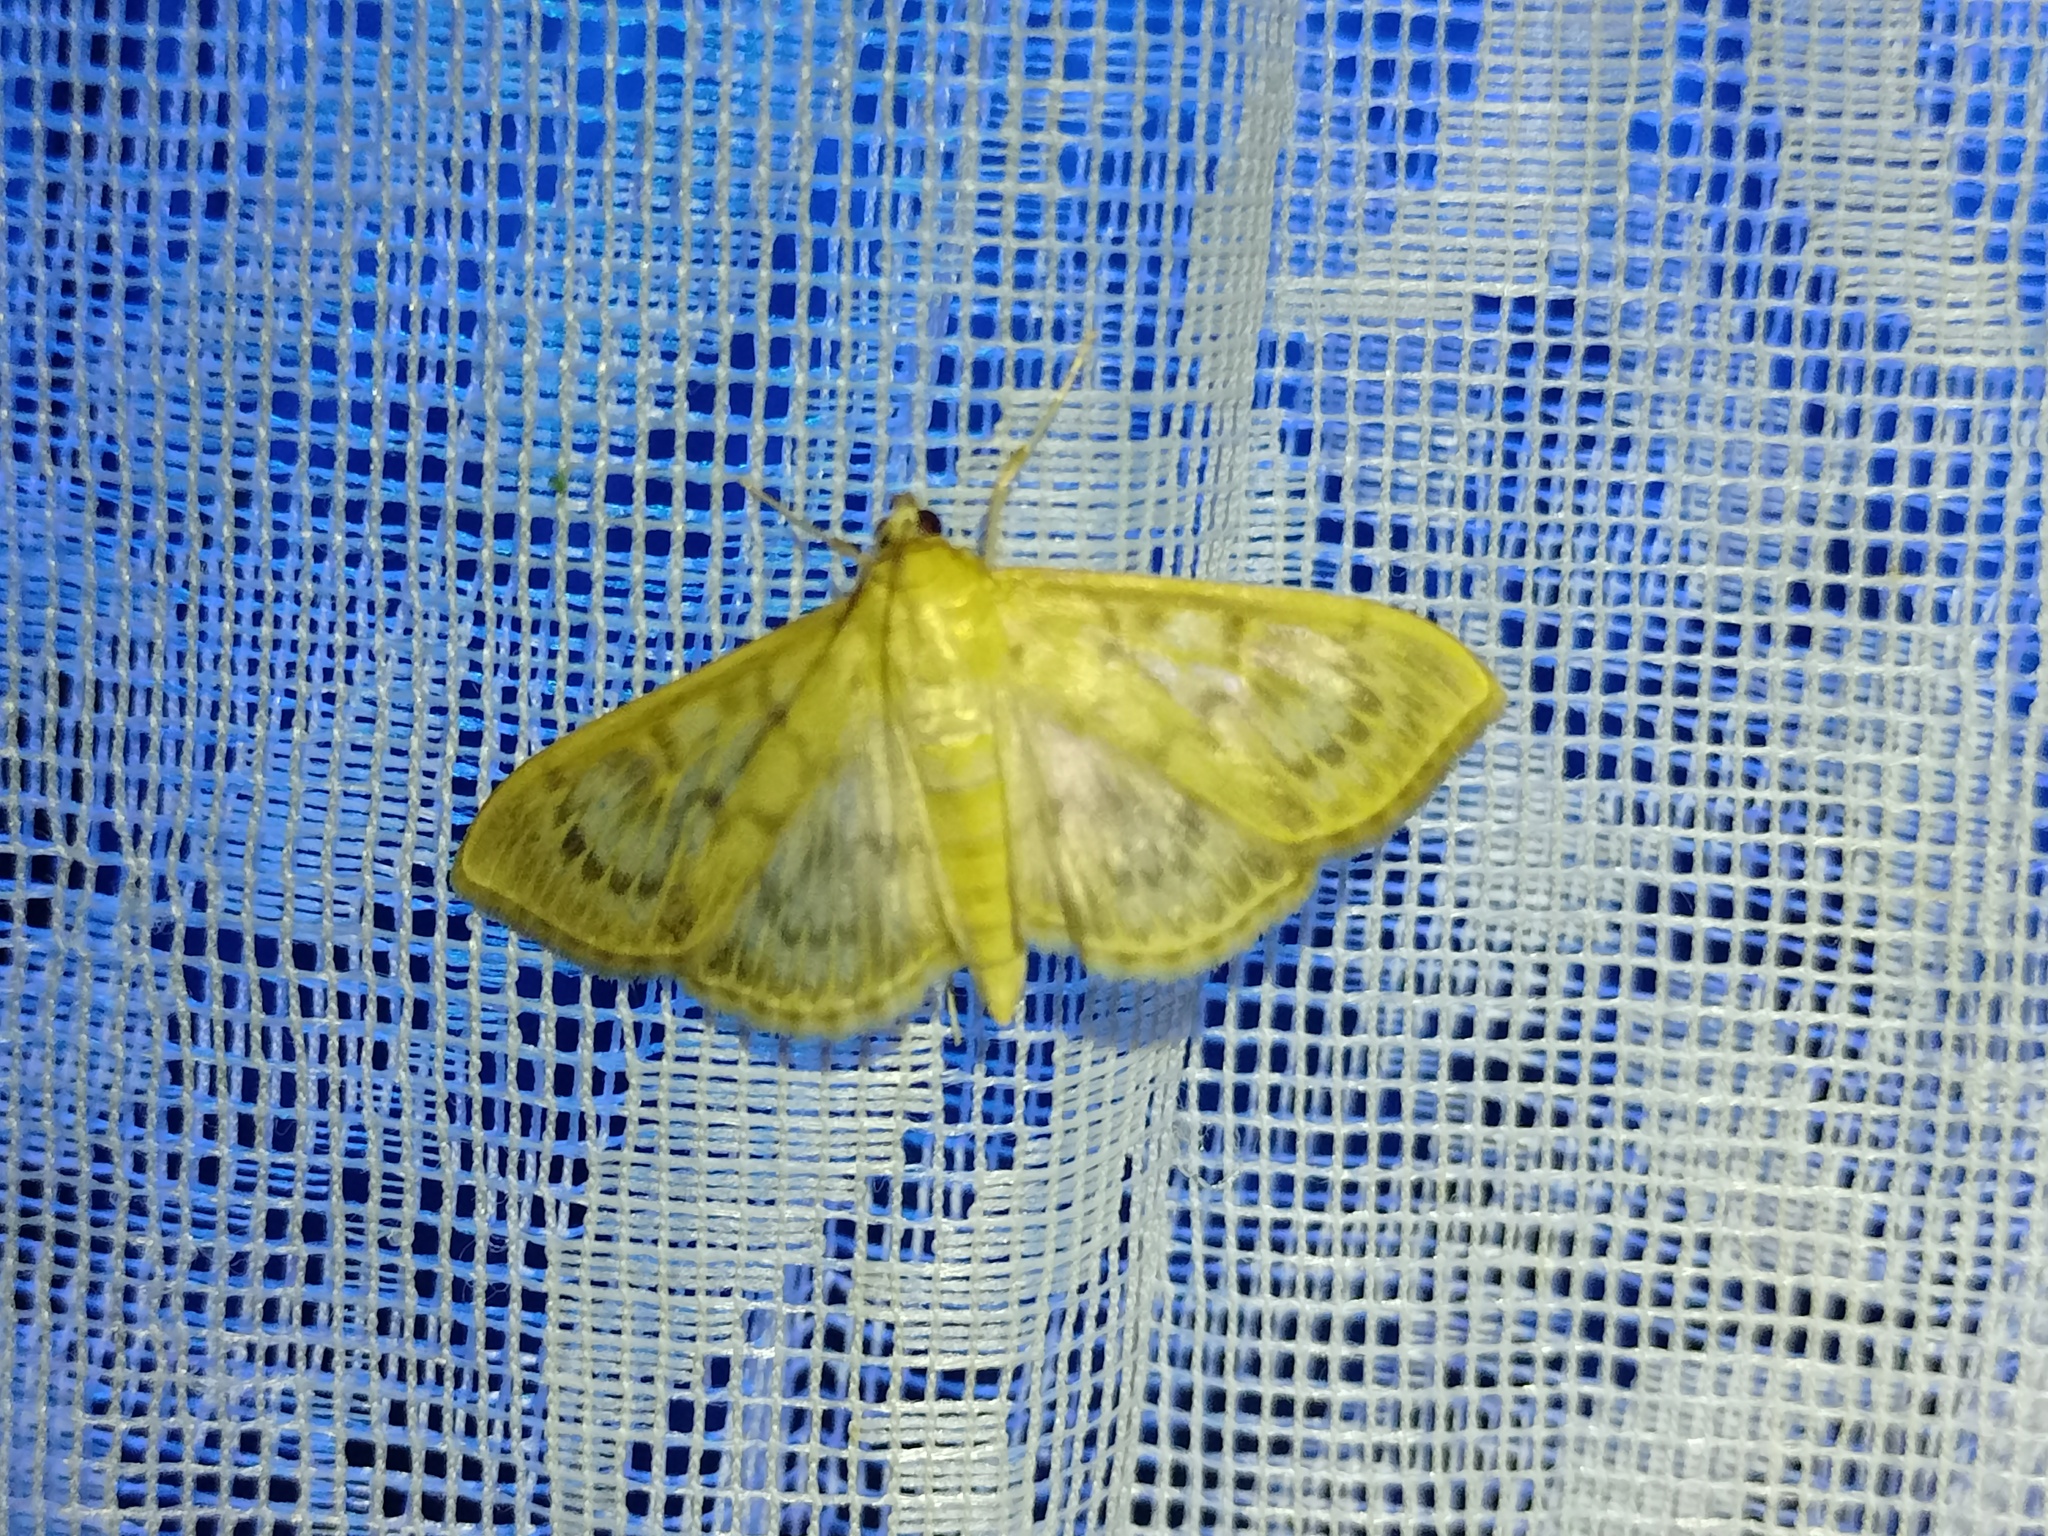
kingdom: Animalia
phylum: Arthropoda
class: Insecta
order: Lepidoptera
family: Crambidae
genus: Patania
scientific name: Patania ruralis
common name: Mother of pearl
